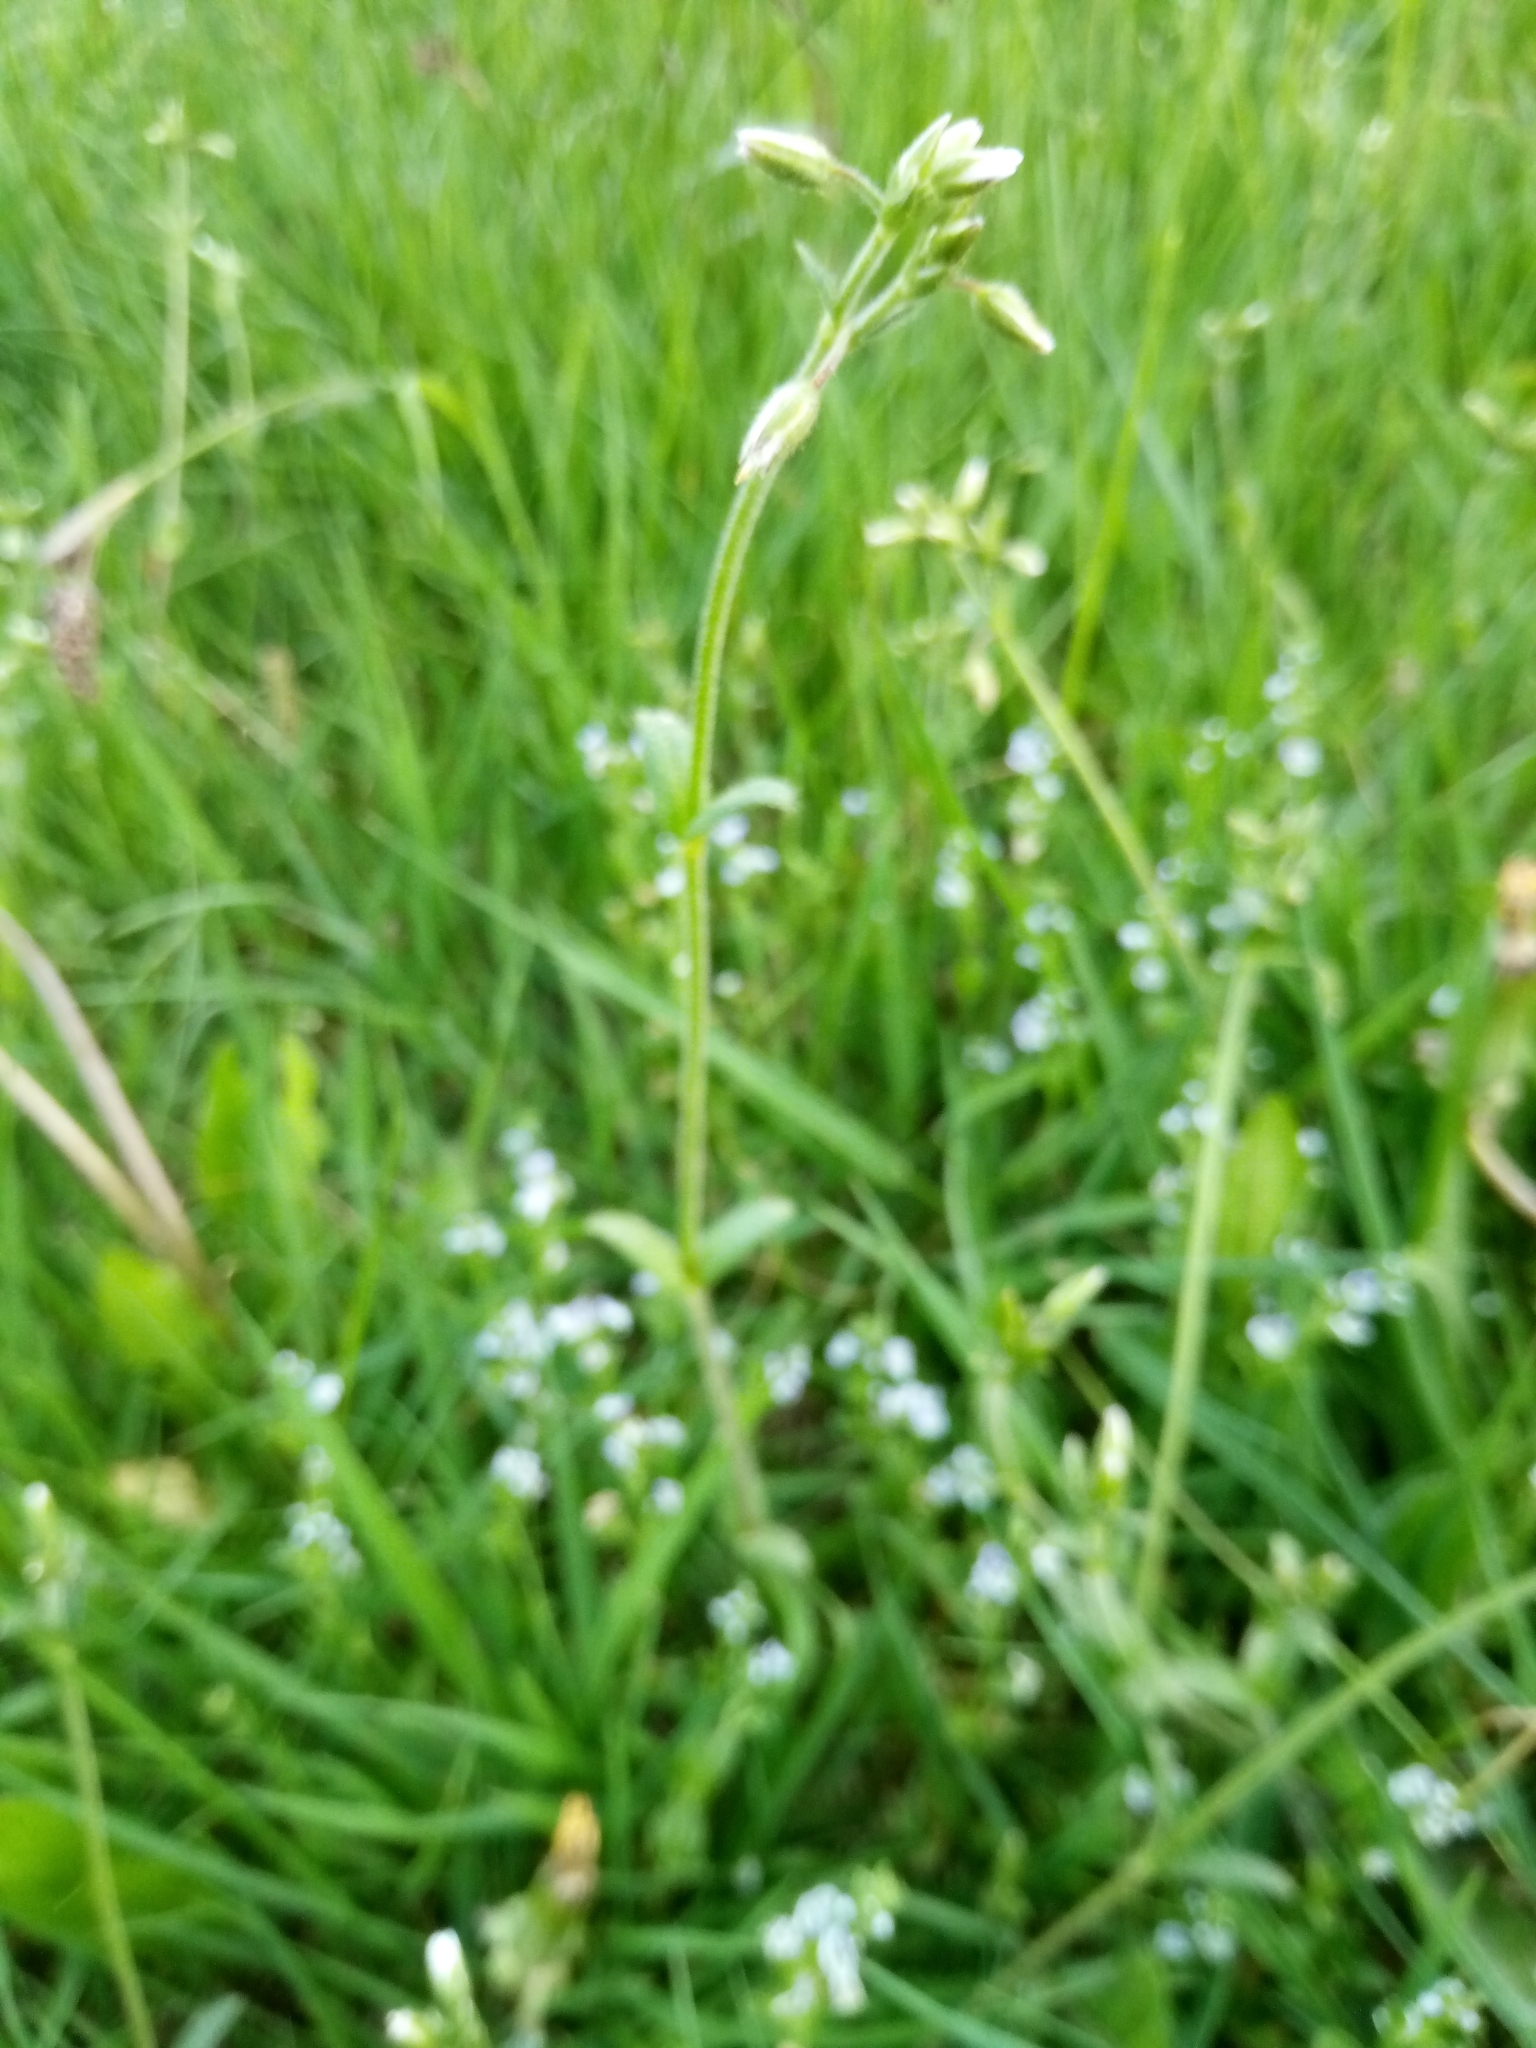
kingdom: Plantae
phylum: Tracheophyta
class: Magnoliopsida
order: Caryophyllales
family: Caryophyllaceae
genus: Cerastium
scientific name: Cerastium holosteoides
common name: Big chickweed
